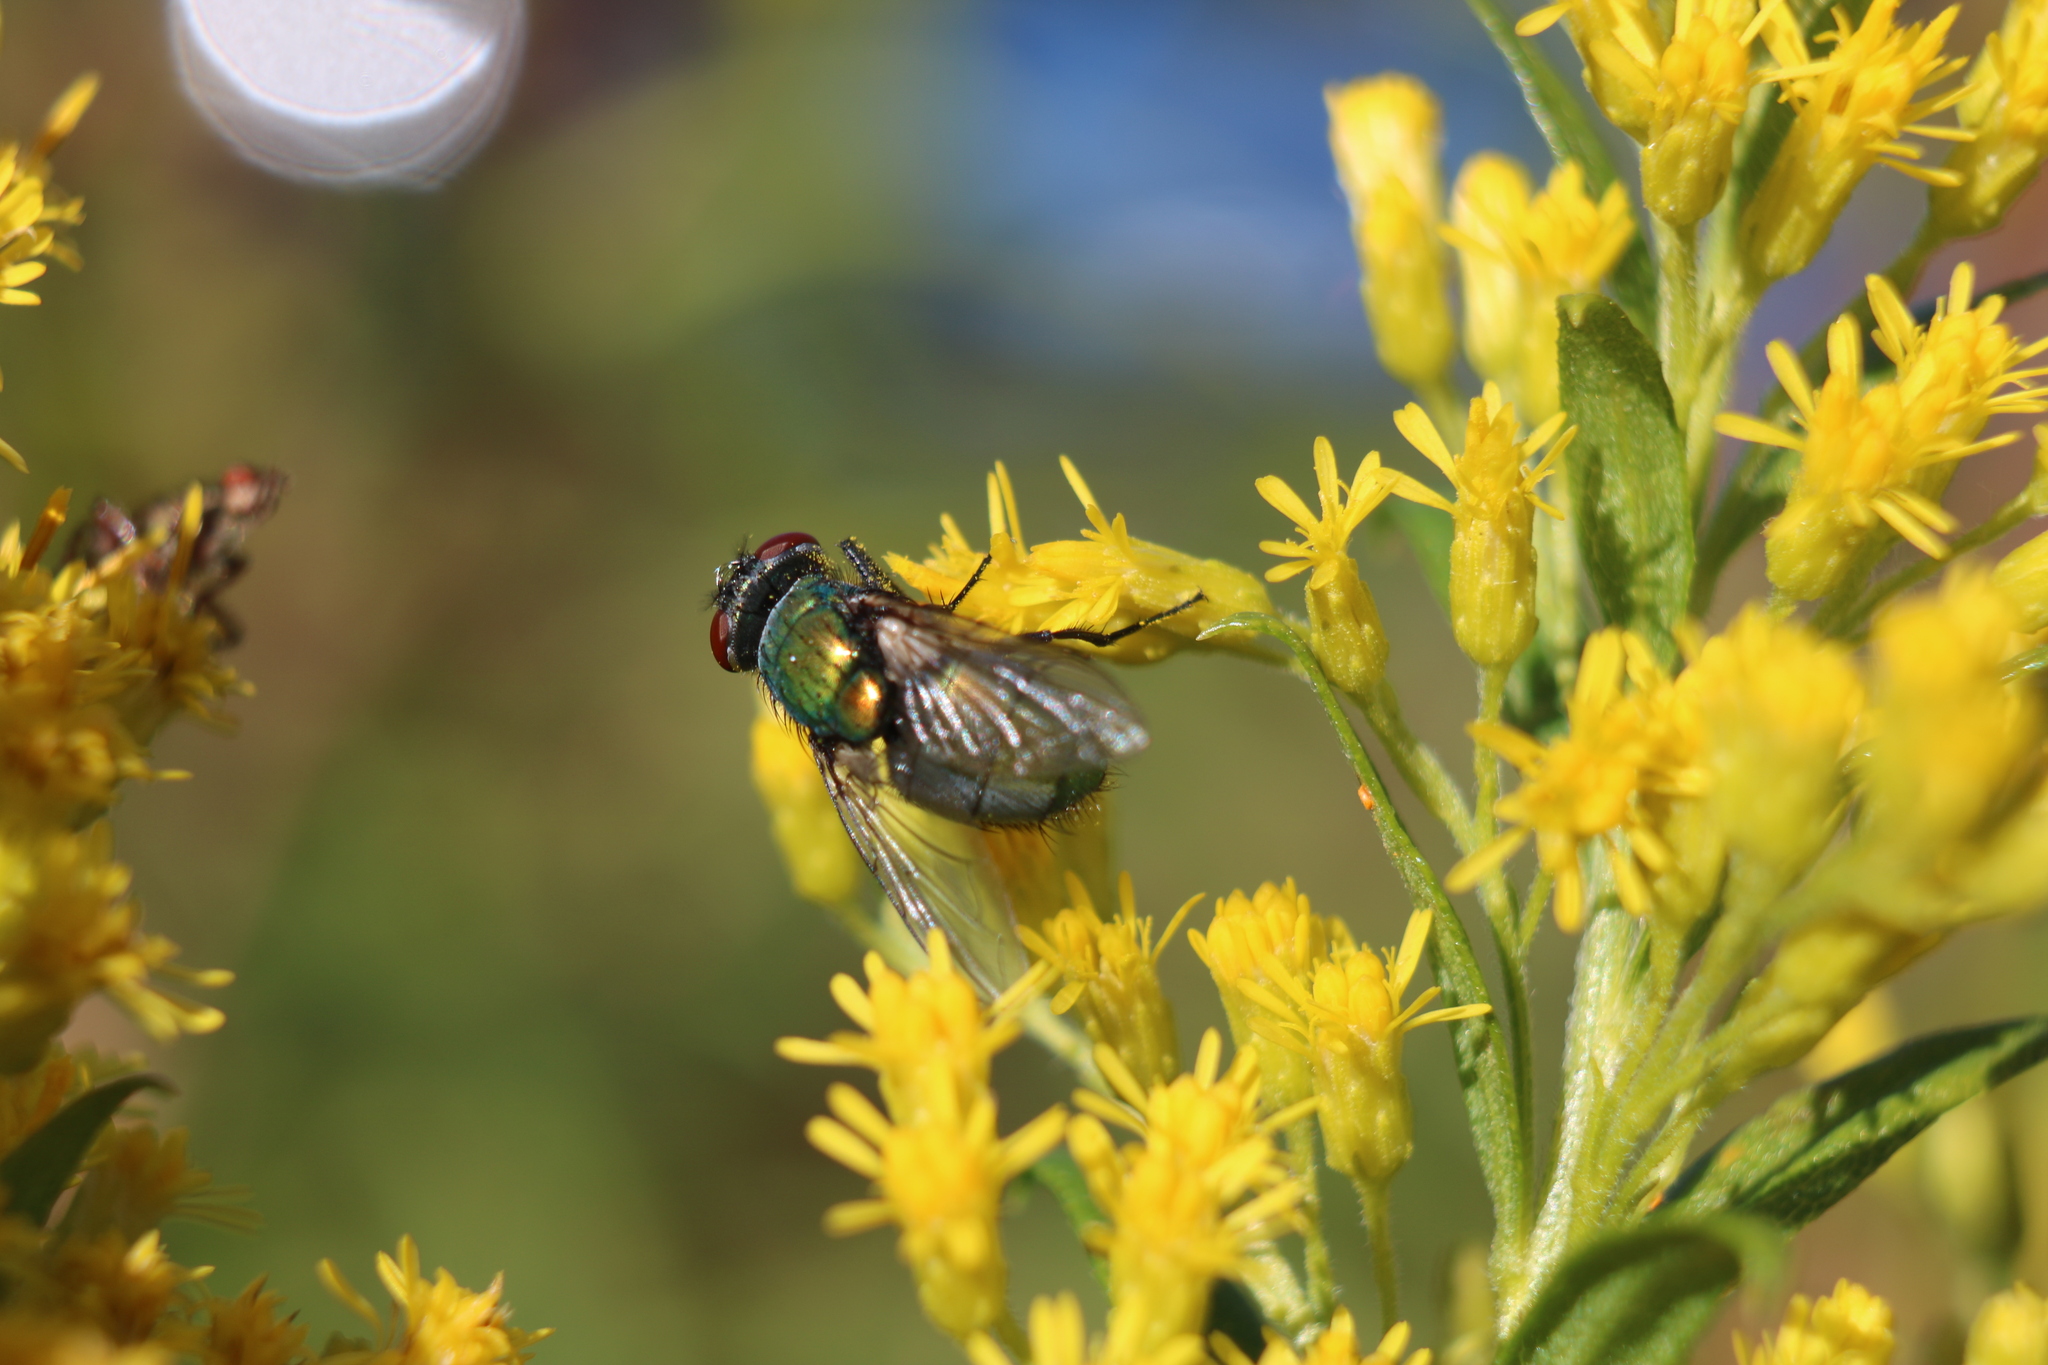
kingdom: Animalia
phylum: Arthropoda
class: Insecta
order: Diptera
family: Calliphoridae
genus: Lucilia
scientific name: Lucilia sericata
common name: Blow fly
